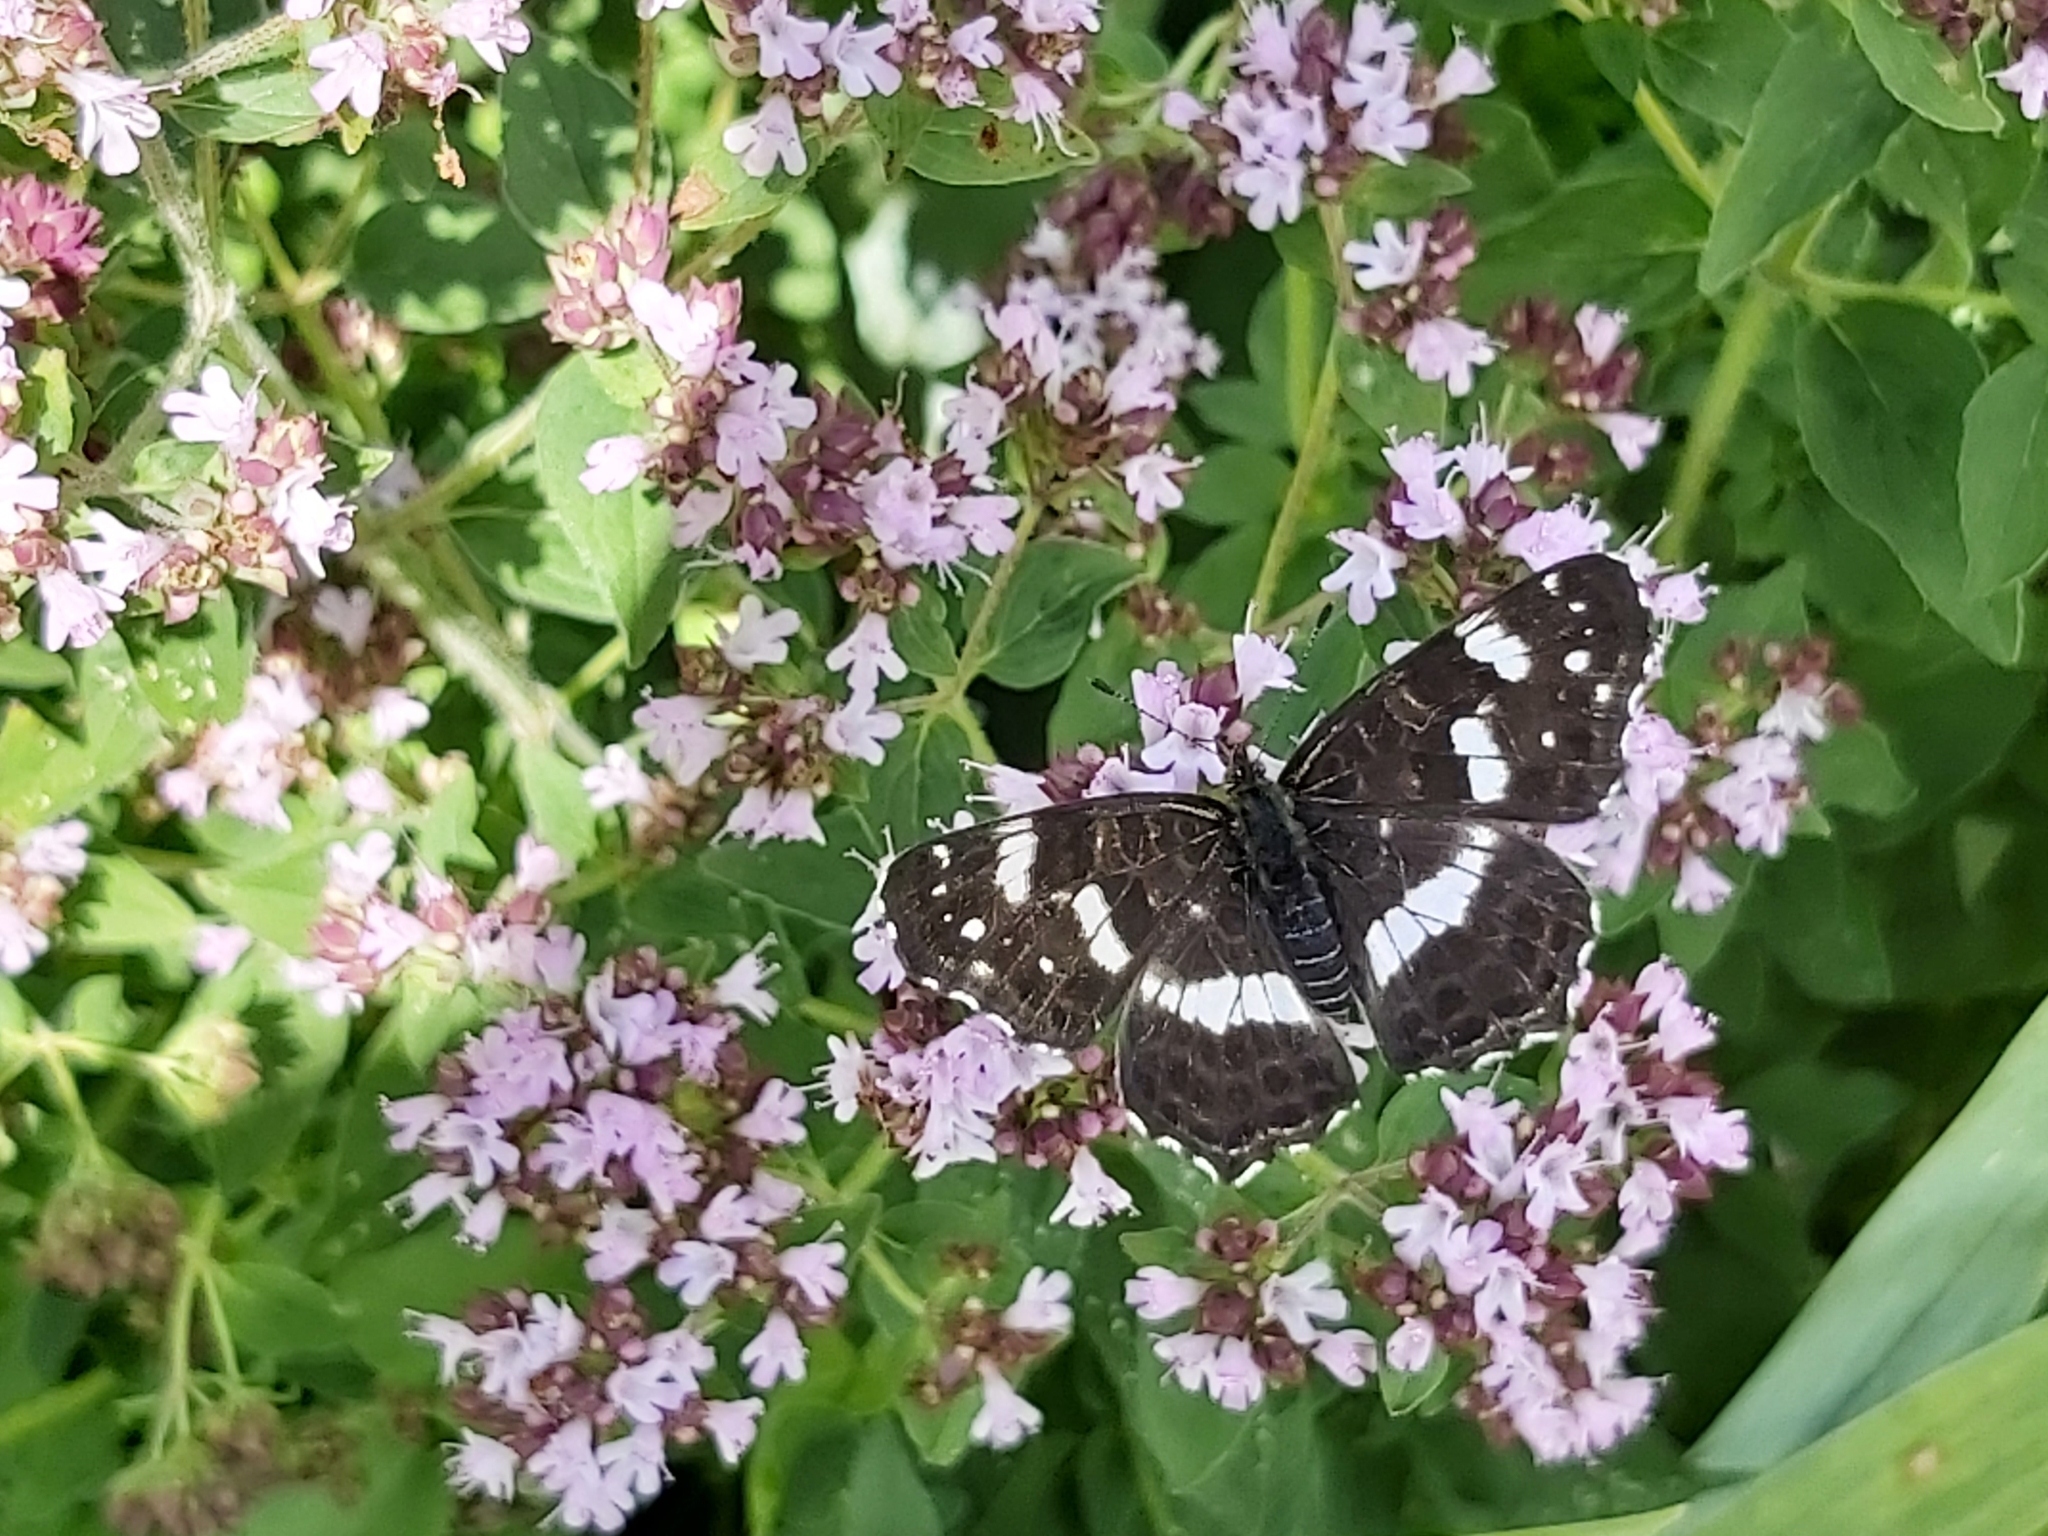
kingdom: Animalia
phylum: Arthropoda
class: Insecta
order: Lepidoptera
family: Nymphalidae
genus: Araschnia
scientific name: Araschnia levana
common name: Map butterfly
